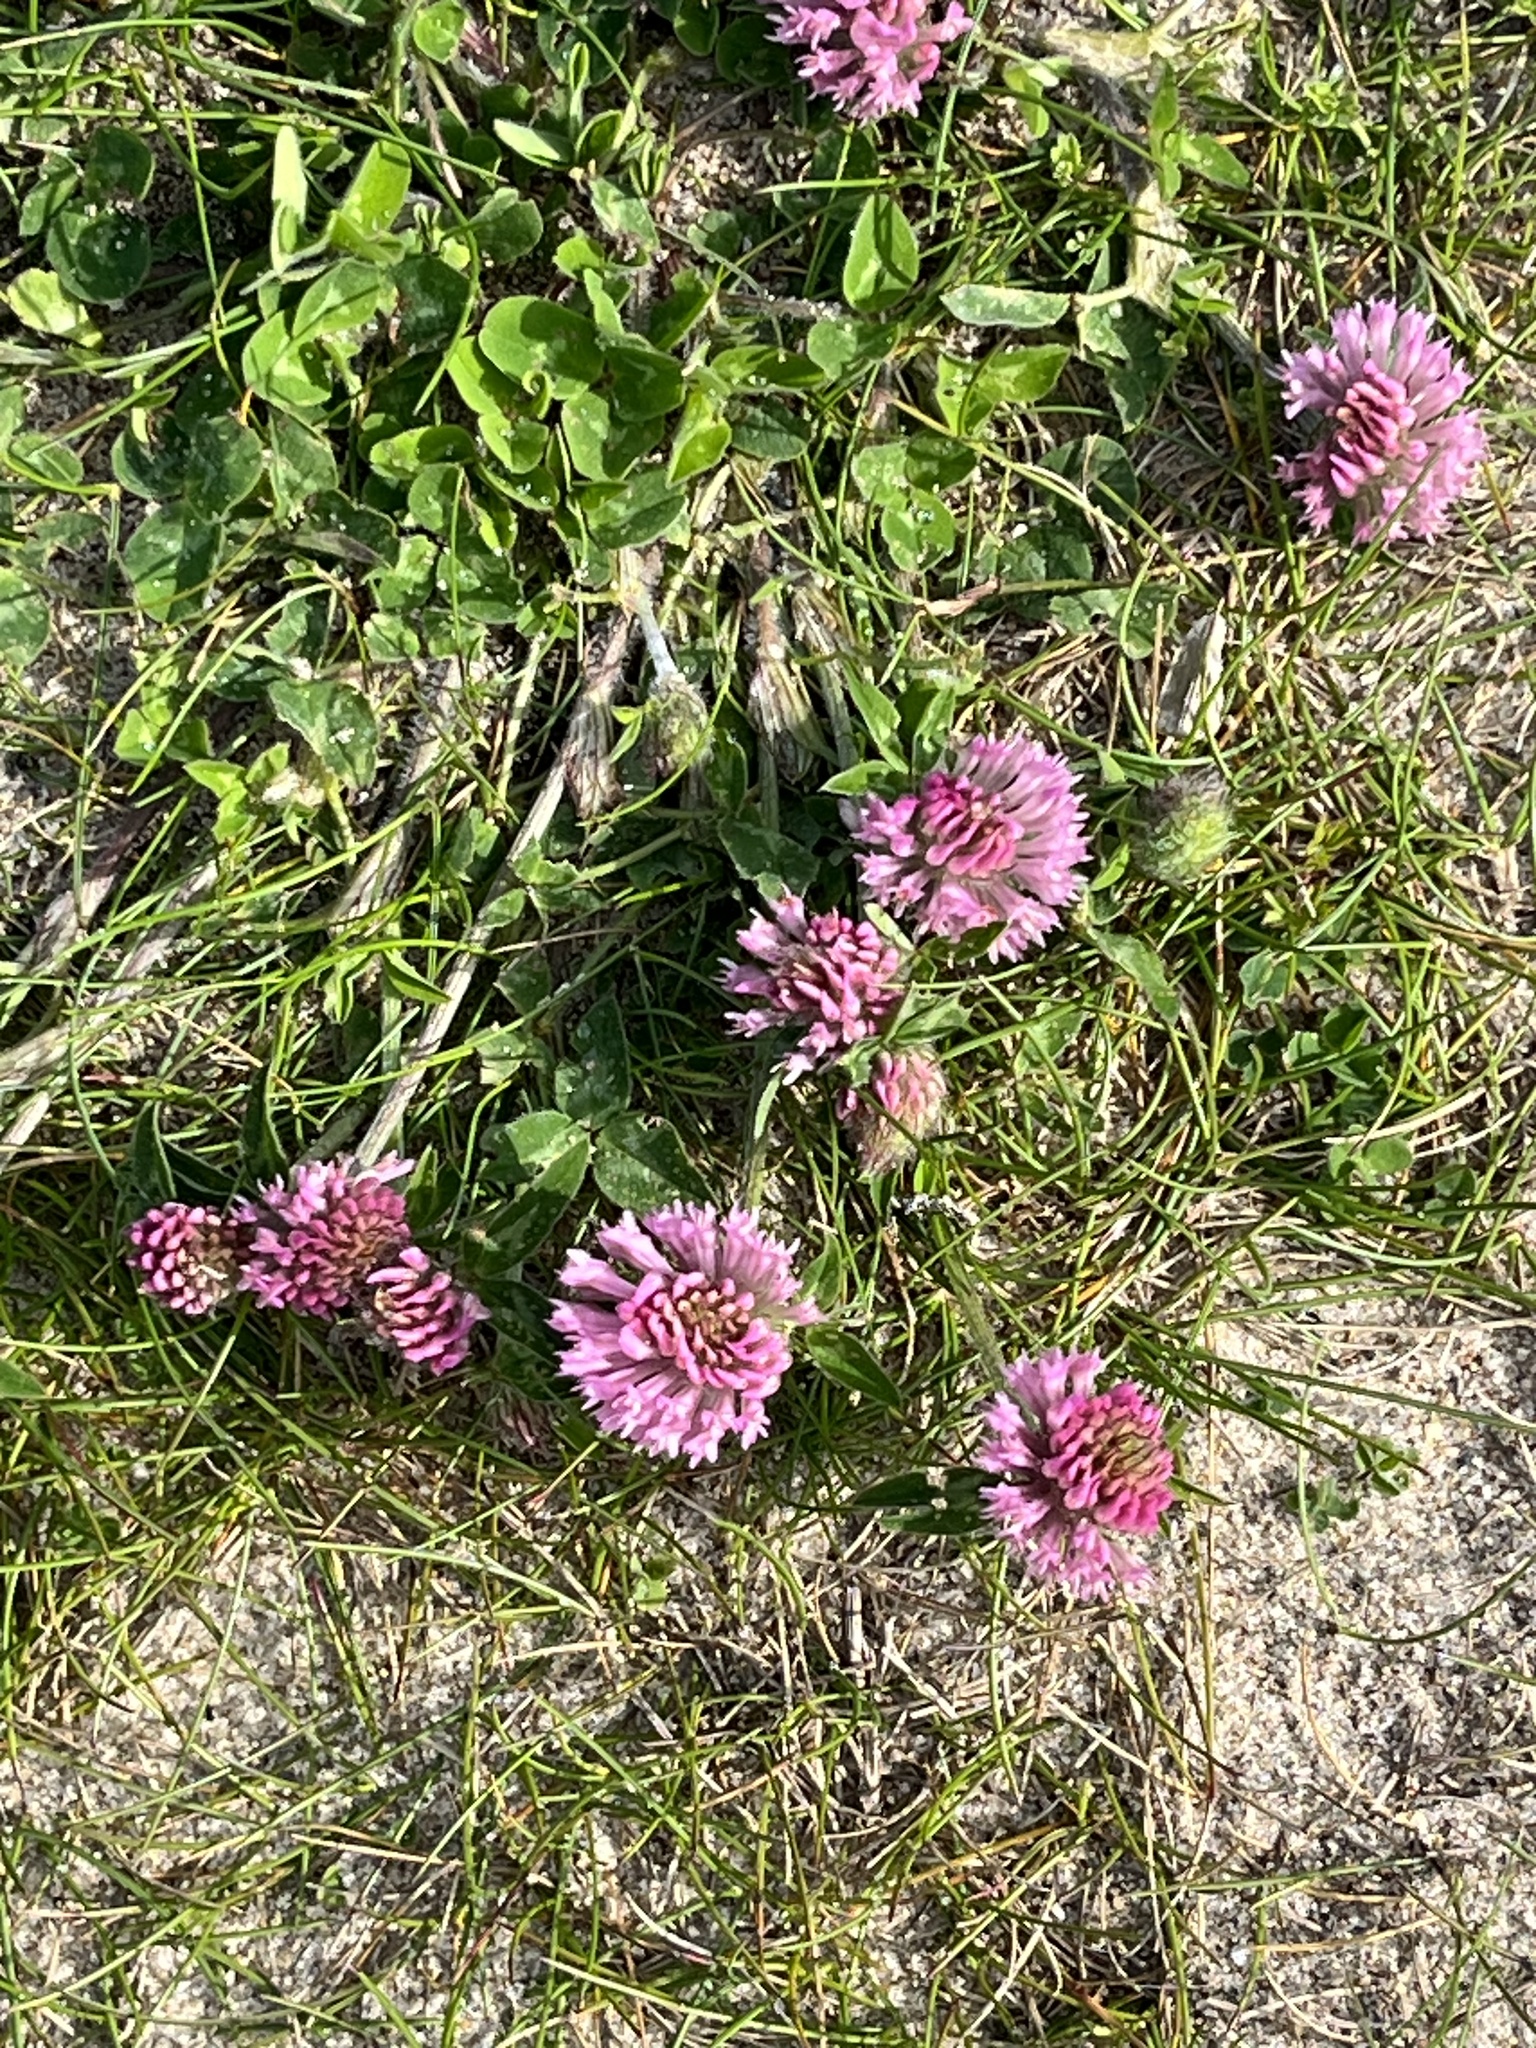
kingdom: Plantae
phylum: Tracheophyta
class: Magnoliopsida
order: Fabales
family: Fabaceae
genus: Trifolium
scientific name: Trifolium pratense
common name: Red clover
